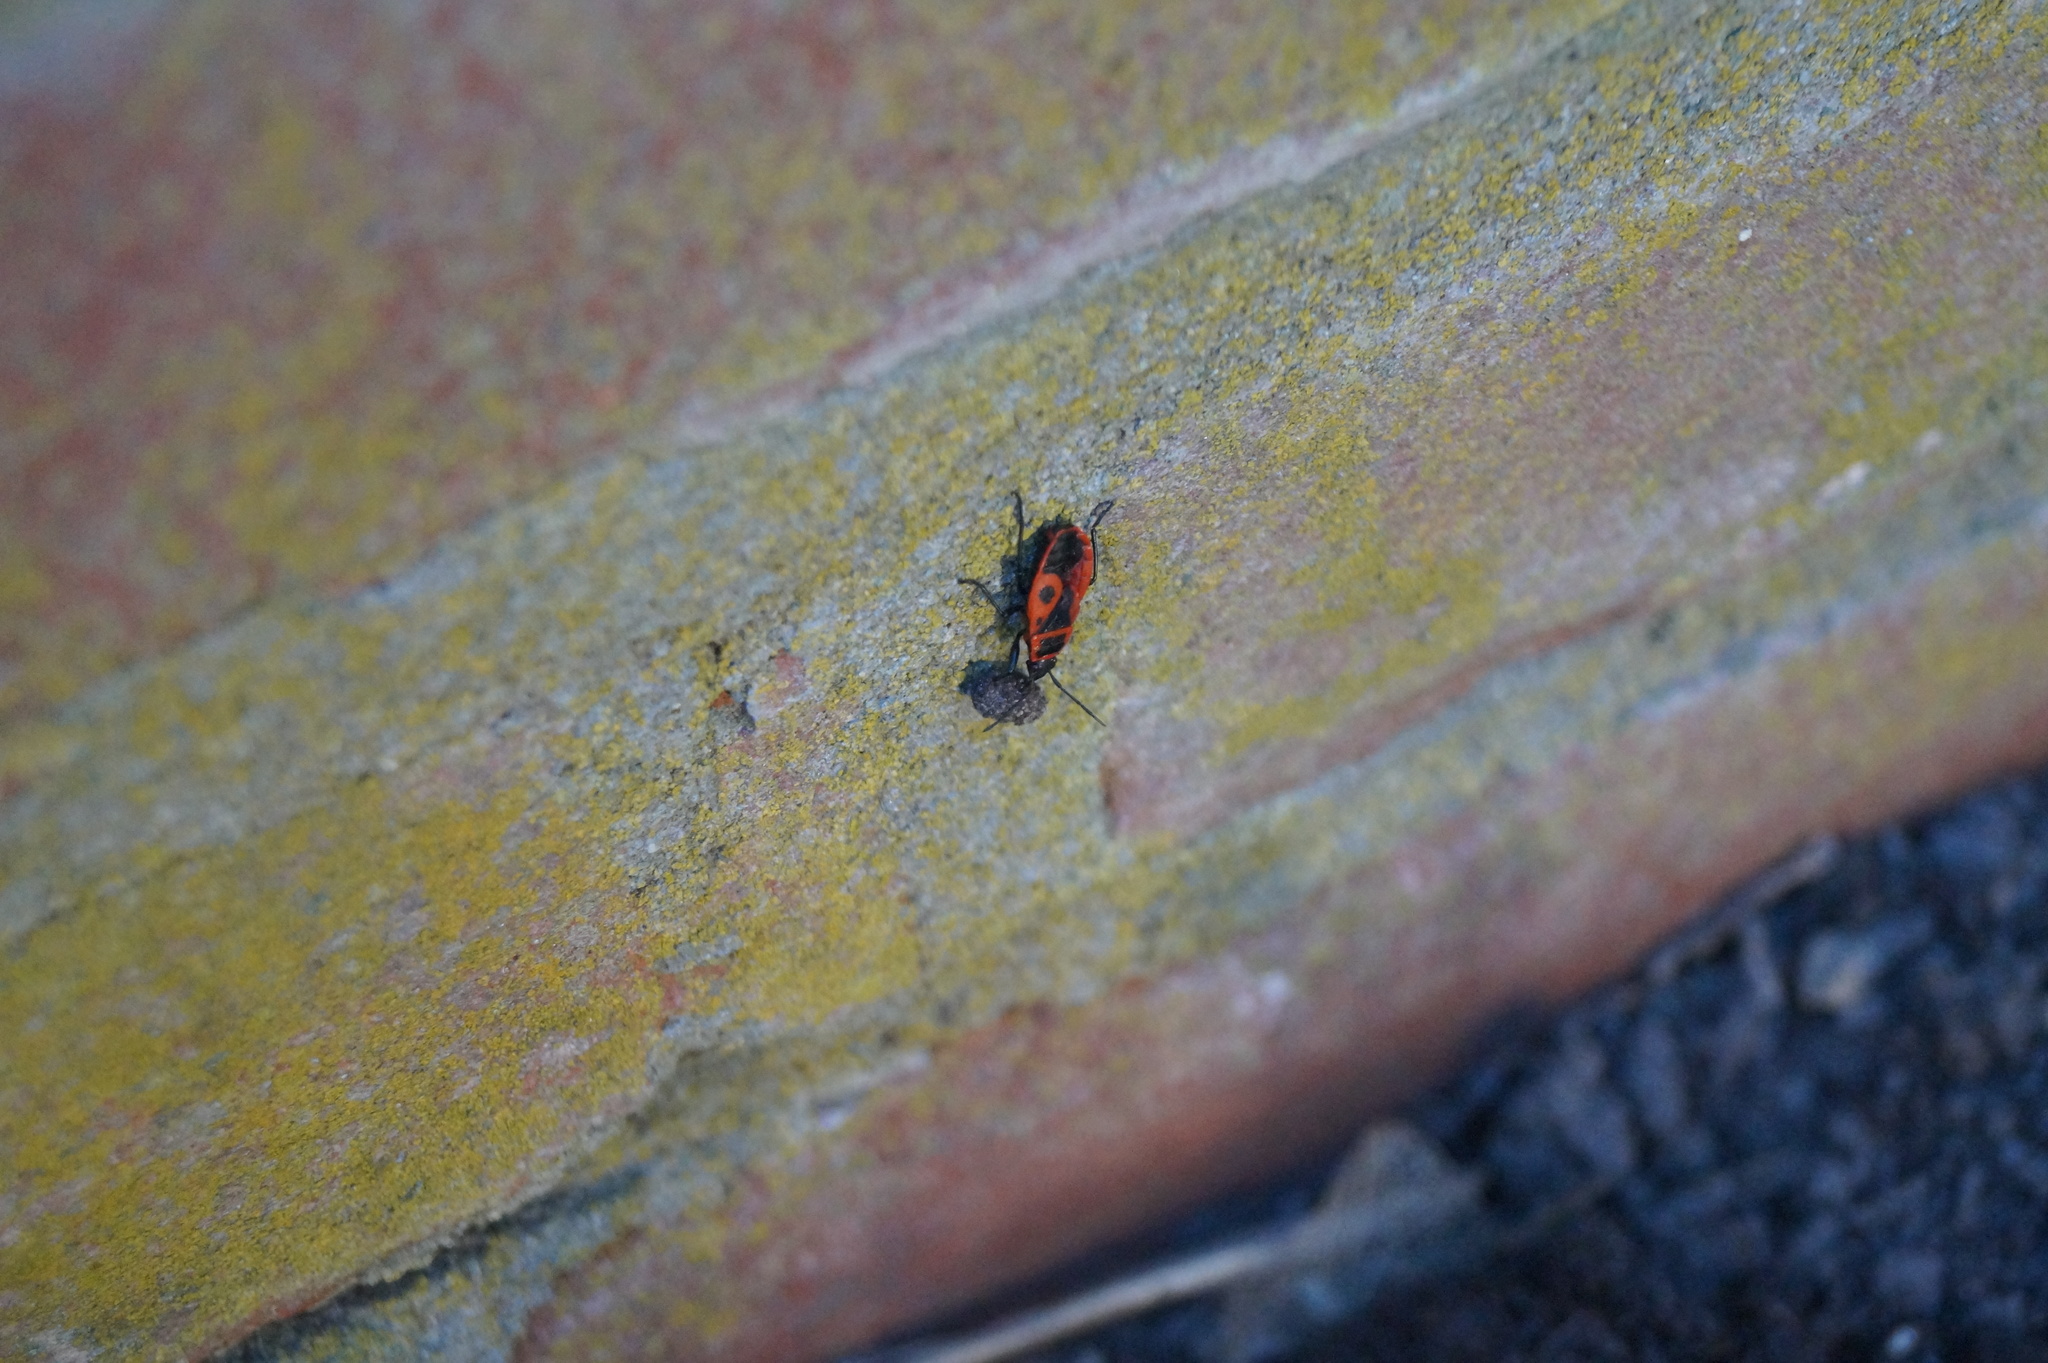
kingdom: Animalia
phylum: Arthropoda
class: Insecta
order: Hemiptera
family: Pyrrhocoridae
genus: Pyrrhocoris
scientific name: Pyrrhocoris apterus
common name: Firebug
